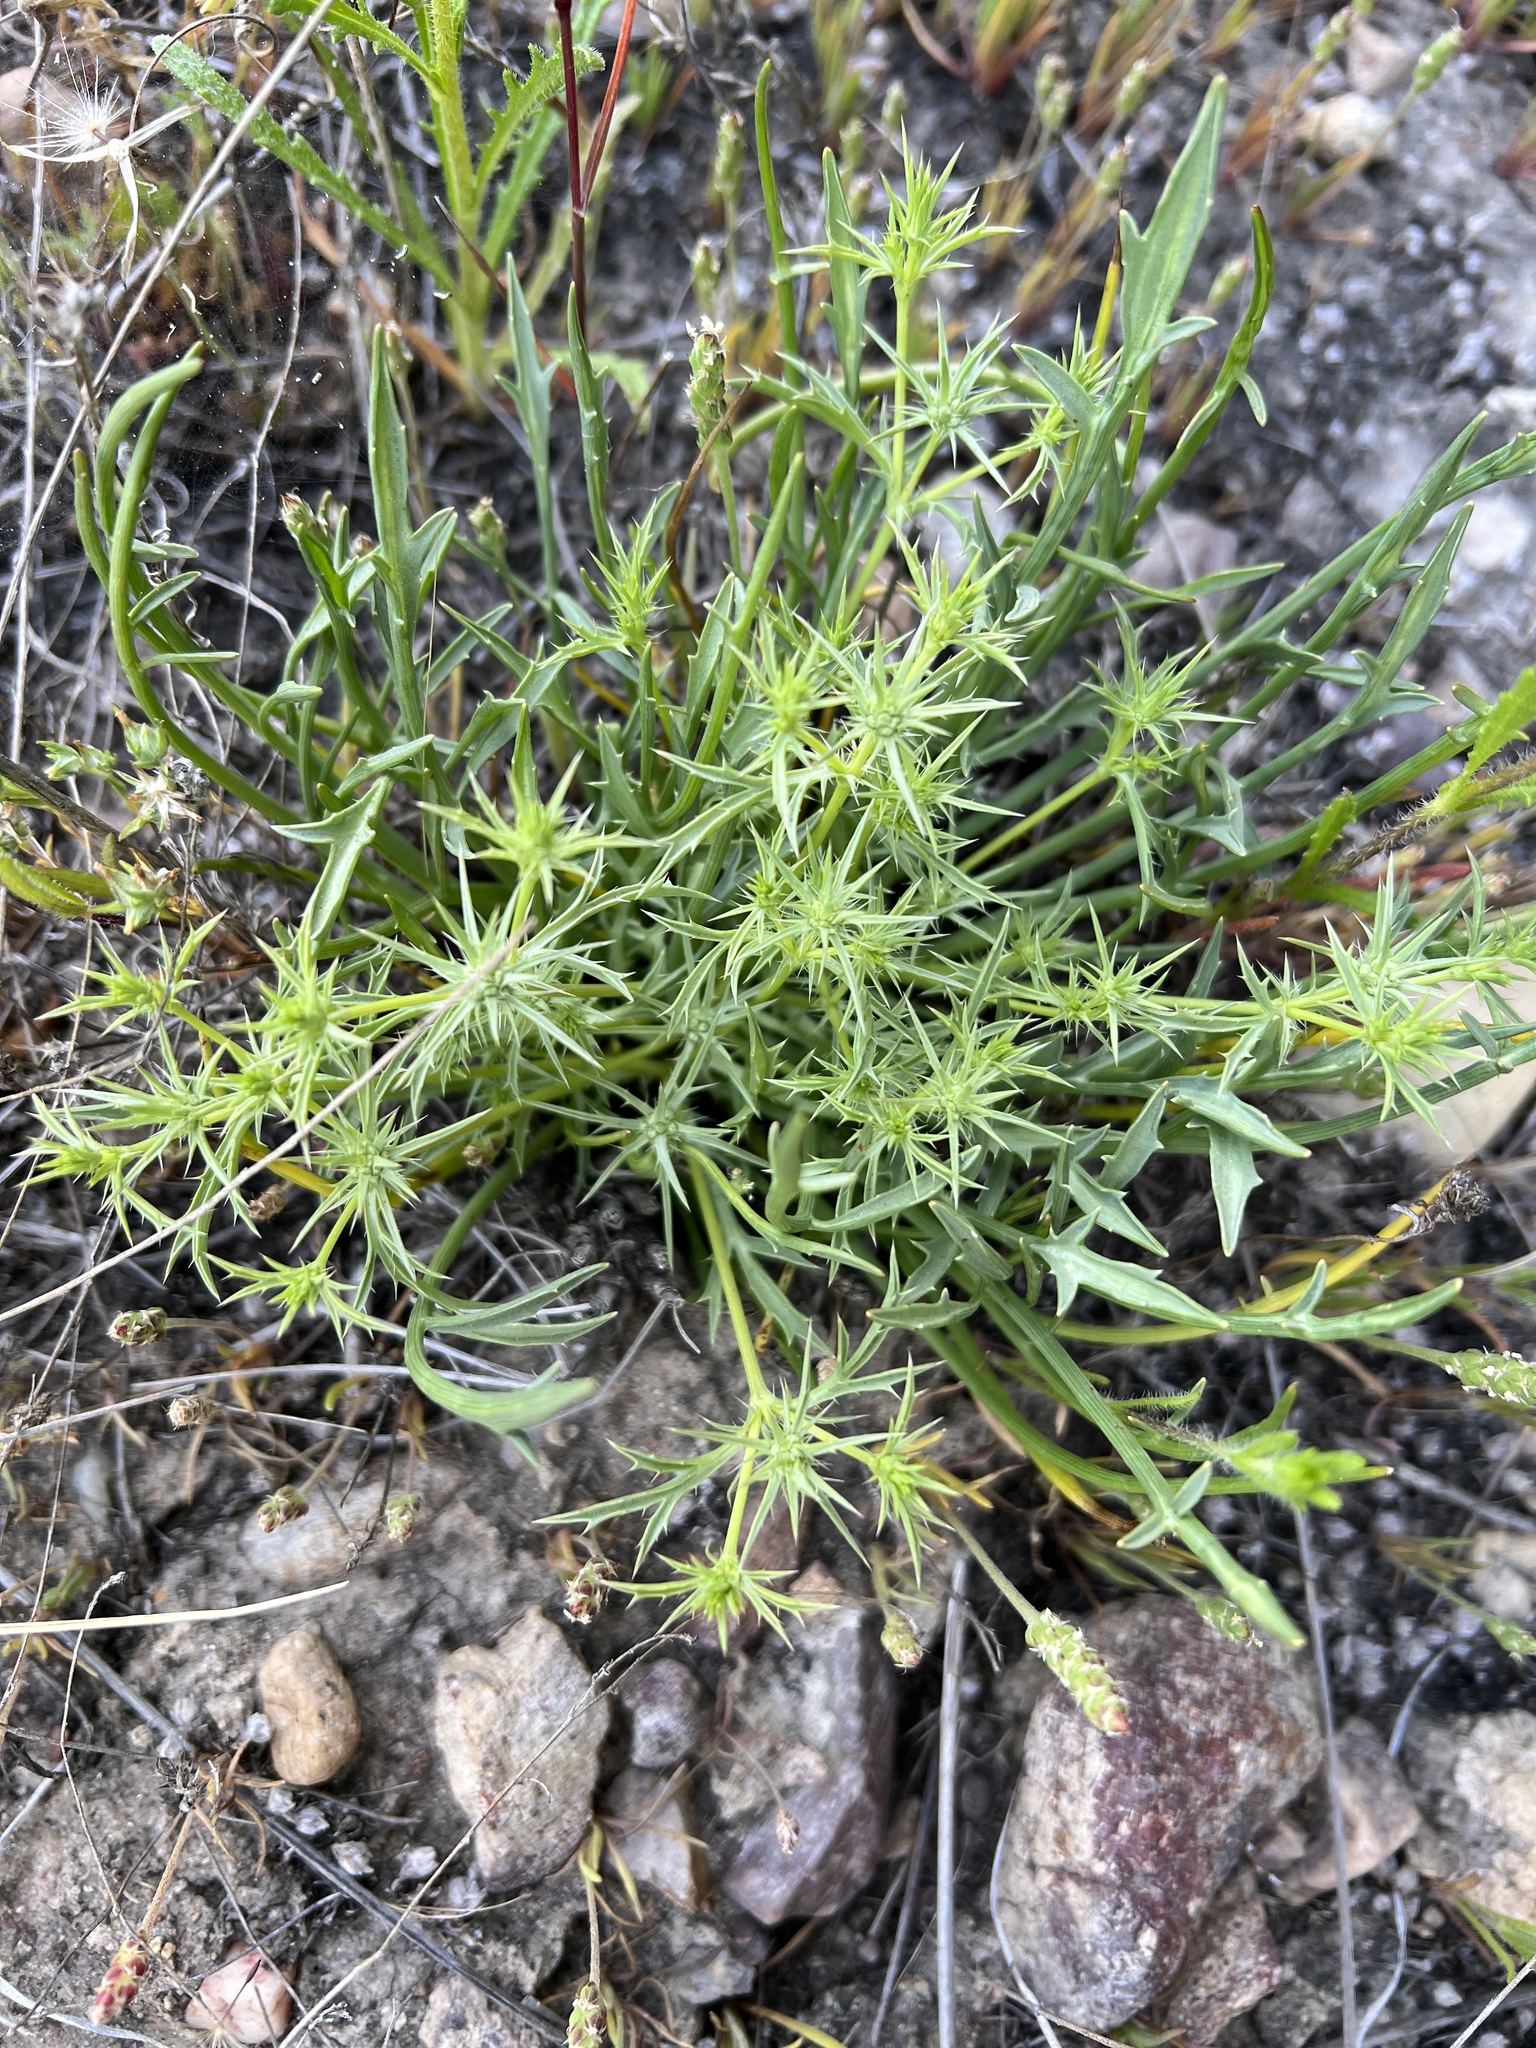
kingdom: Plantae
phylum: Tracheophyta
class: Magnoliopsida
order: Apiales
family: Apiaceae
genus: Eryngium
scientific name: Eryngium aristulatum
